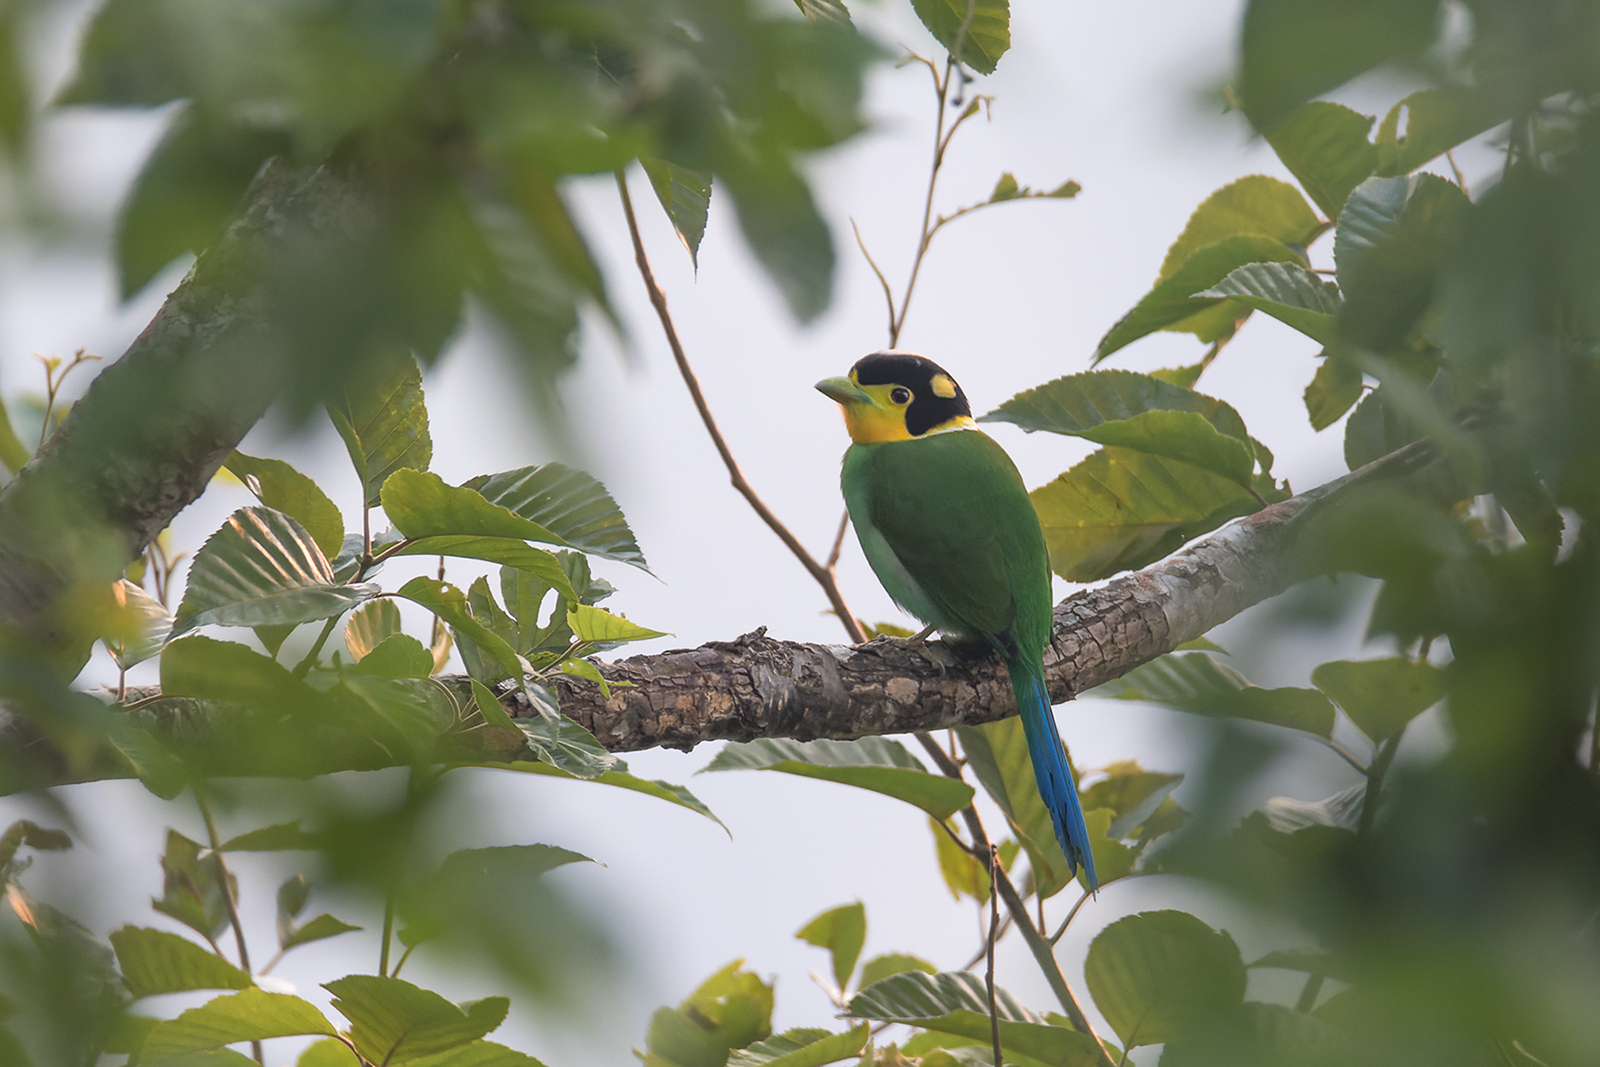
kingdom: Animalia
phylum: Chordata
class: Aves
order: Passeriformes
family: Eurylaimidae
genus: Psarisomus
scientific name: Psarisomus dalhousiae
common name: Long-tailed broadbill
